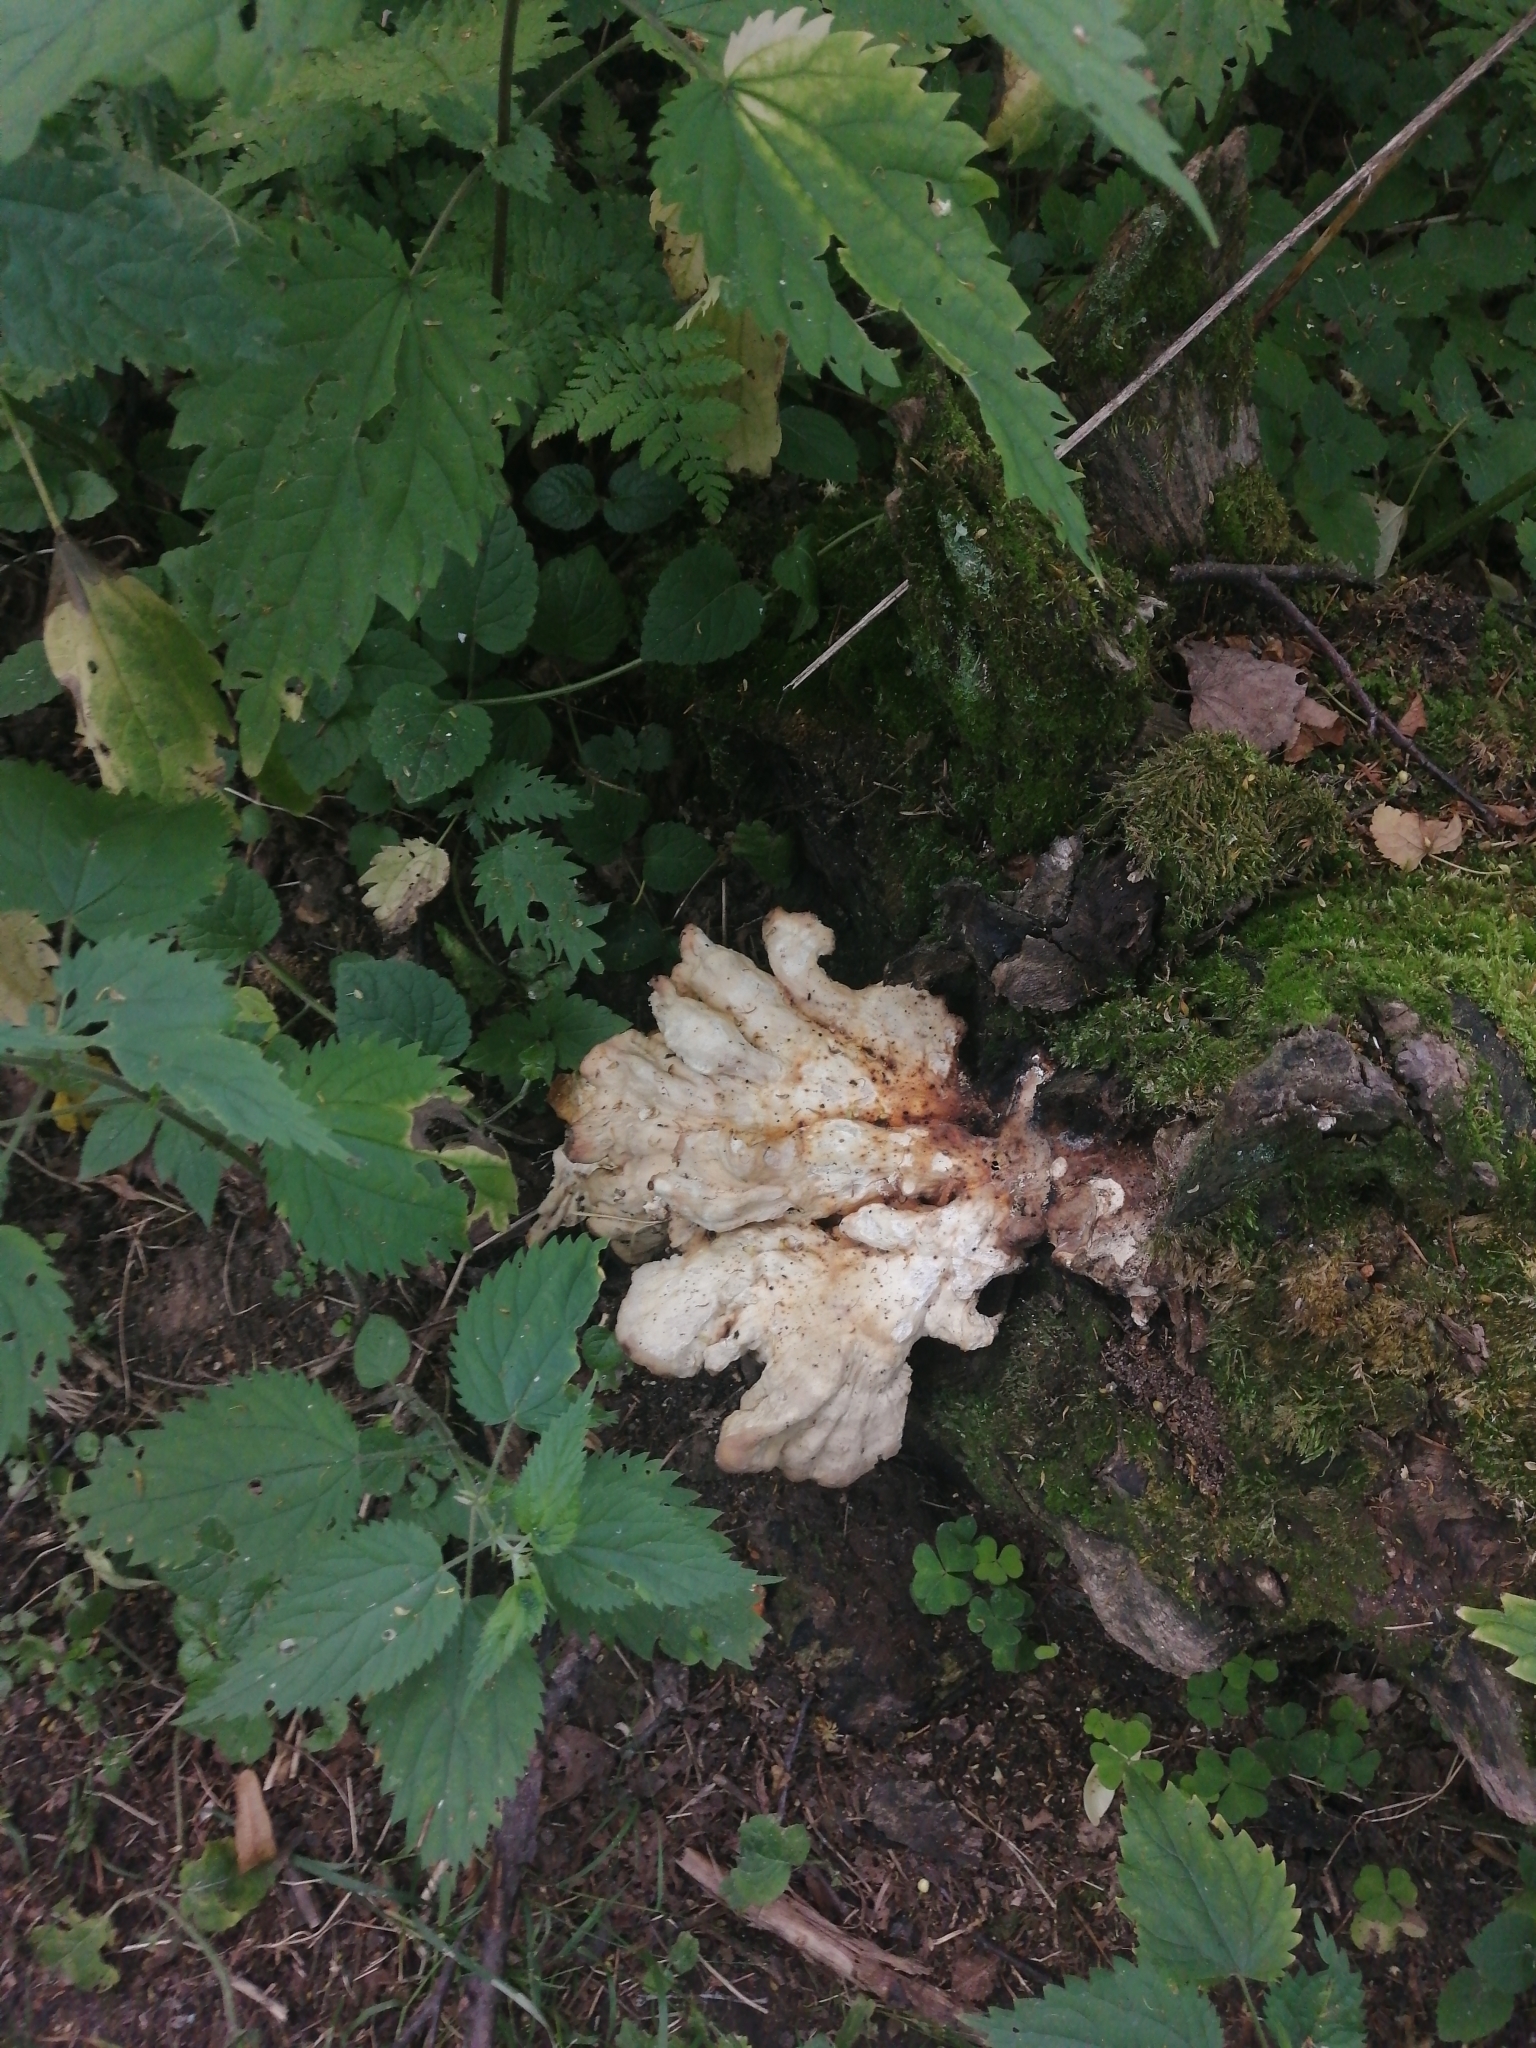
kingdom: Fungi
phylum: Basidiomycota
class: Agaricomycetes
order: Polyporales
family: Laetiporaceae
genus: Laetiporus
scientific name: Laetiporus sulphureus
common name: Chicken of the woods
